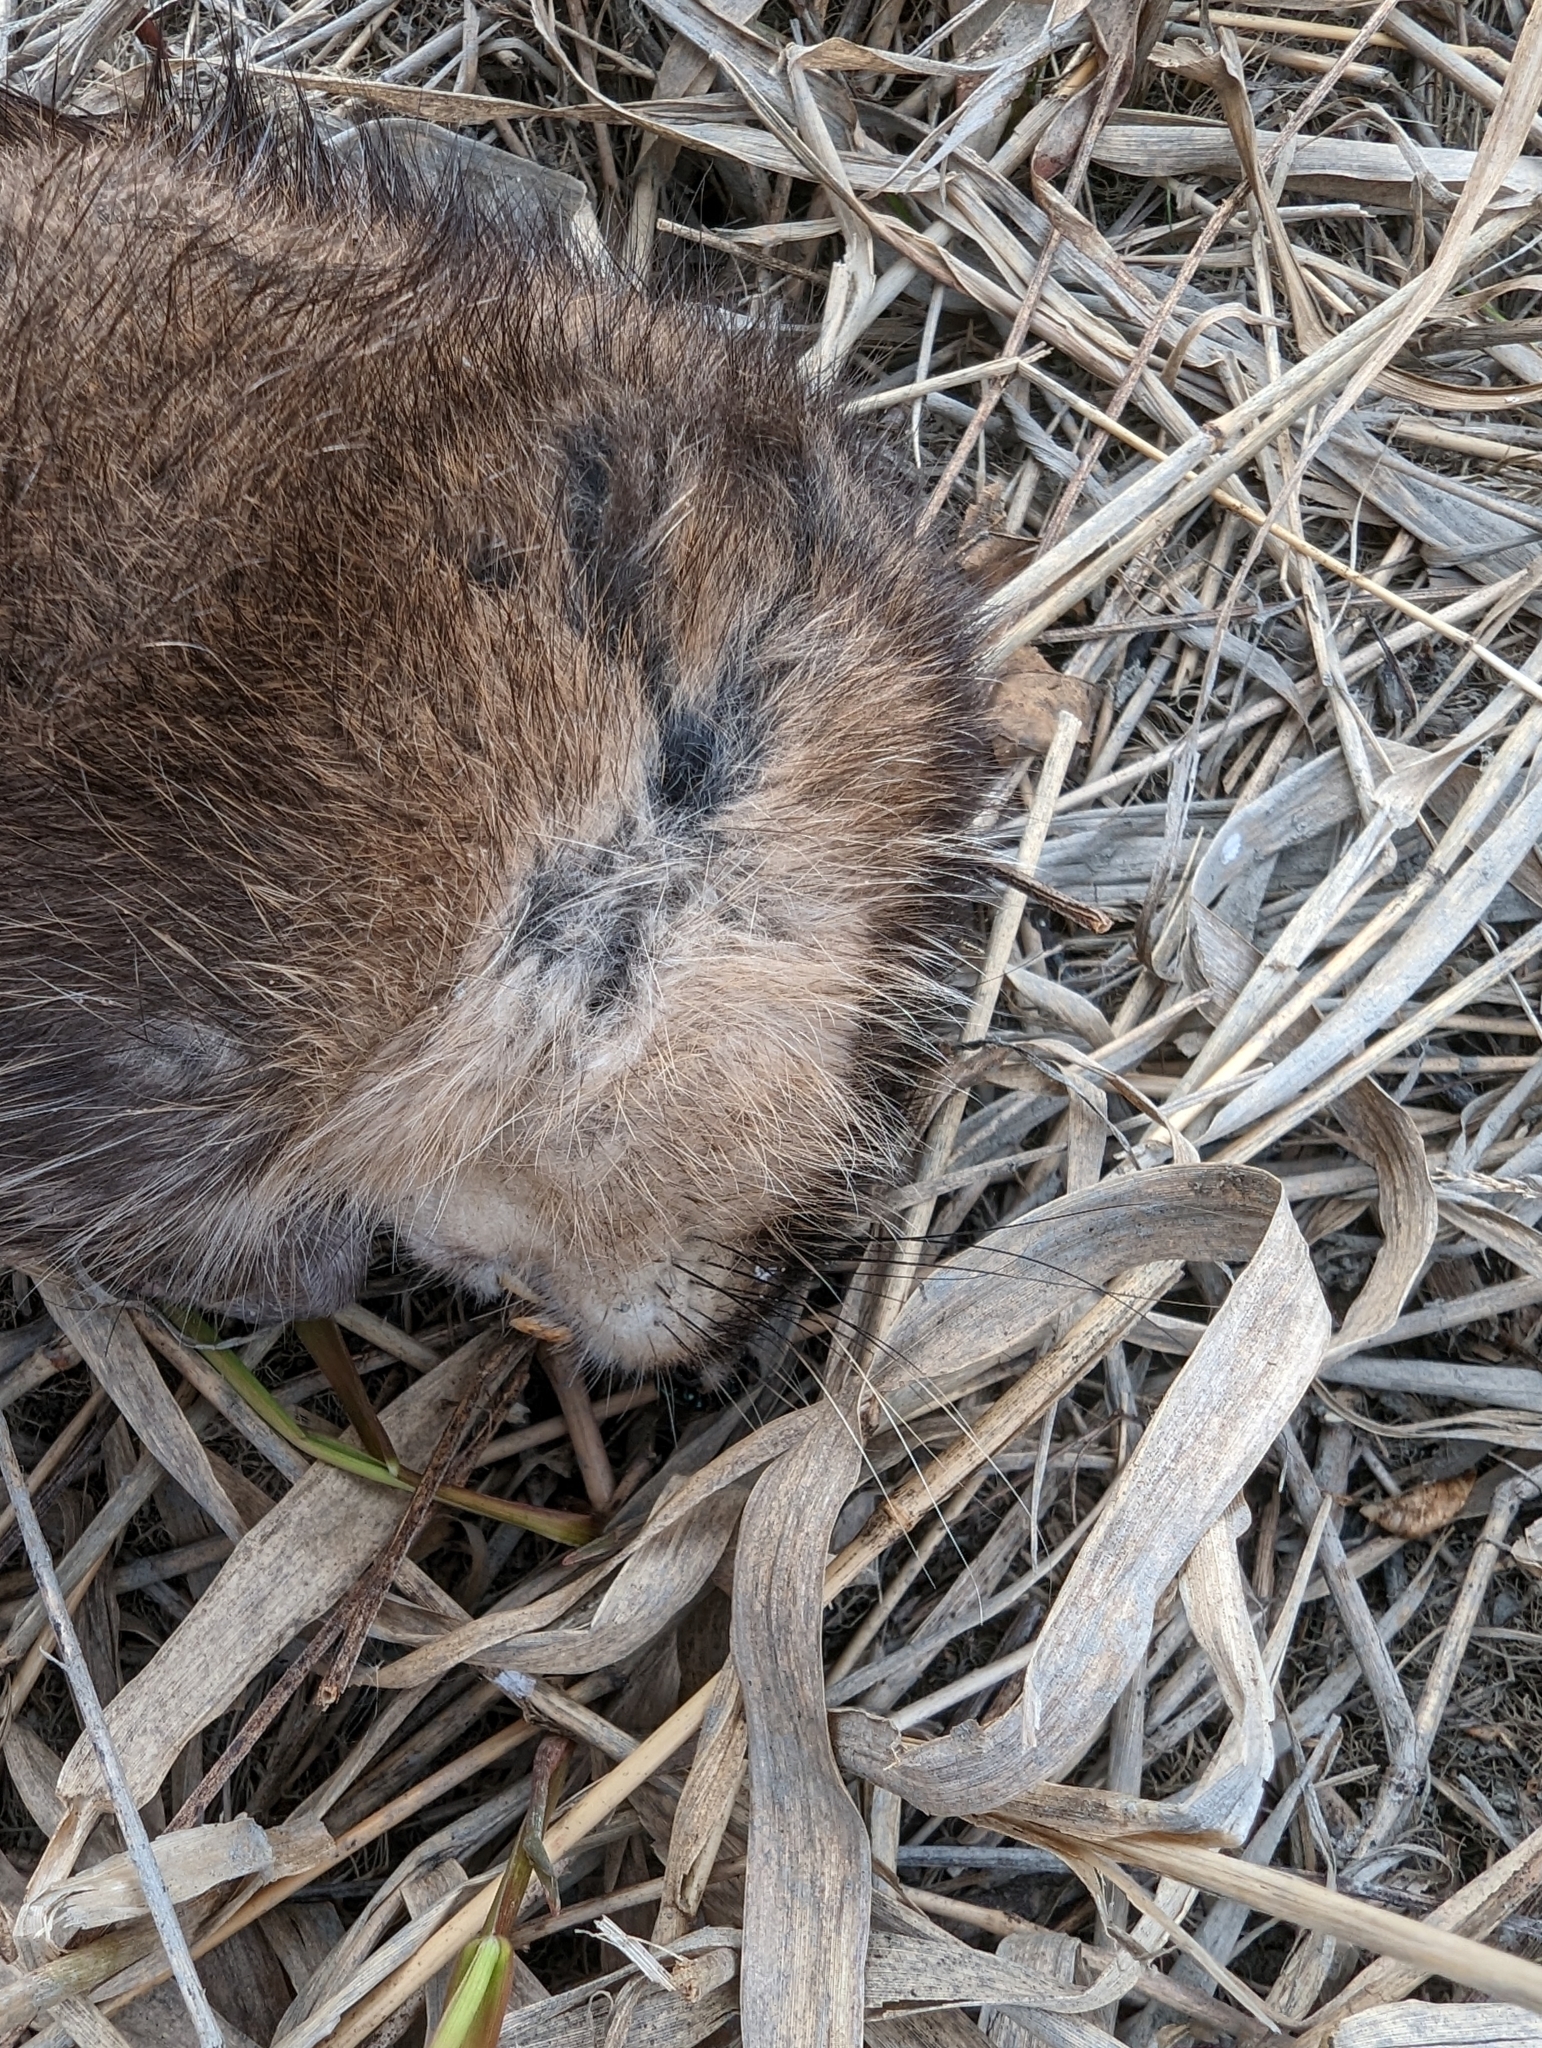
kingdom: Animalia
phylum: Chordata
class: Mammalia
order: Rodentia
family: Cricetidae
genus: Ondatra
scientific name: Ondatra zibethicus
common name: Muskrat
